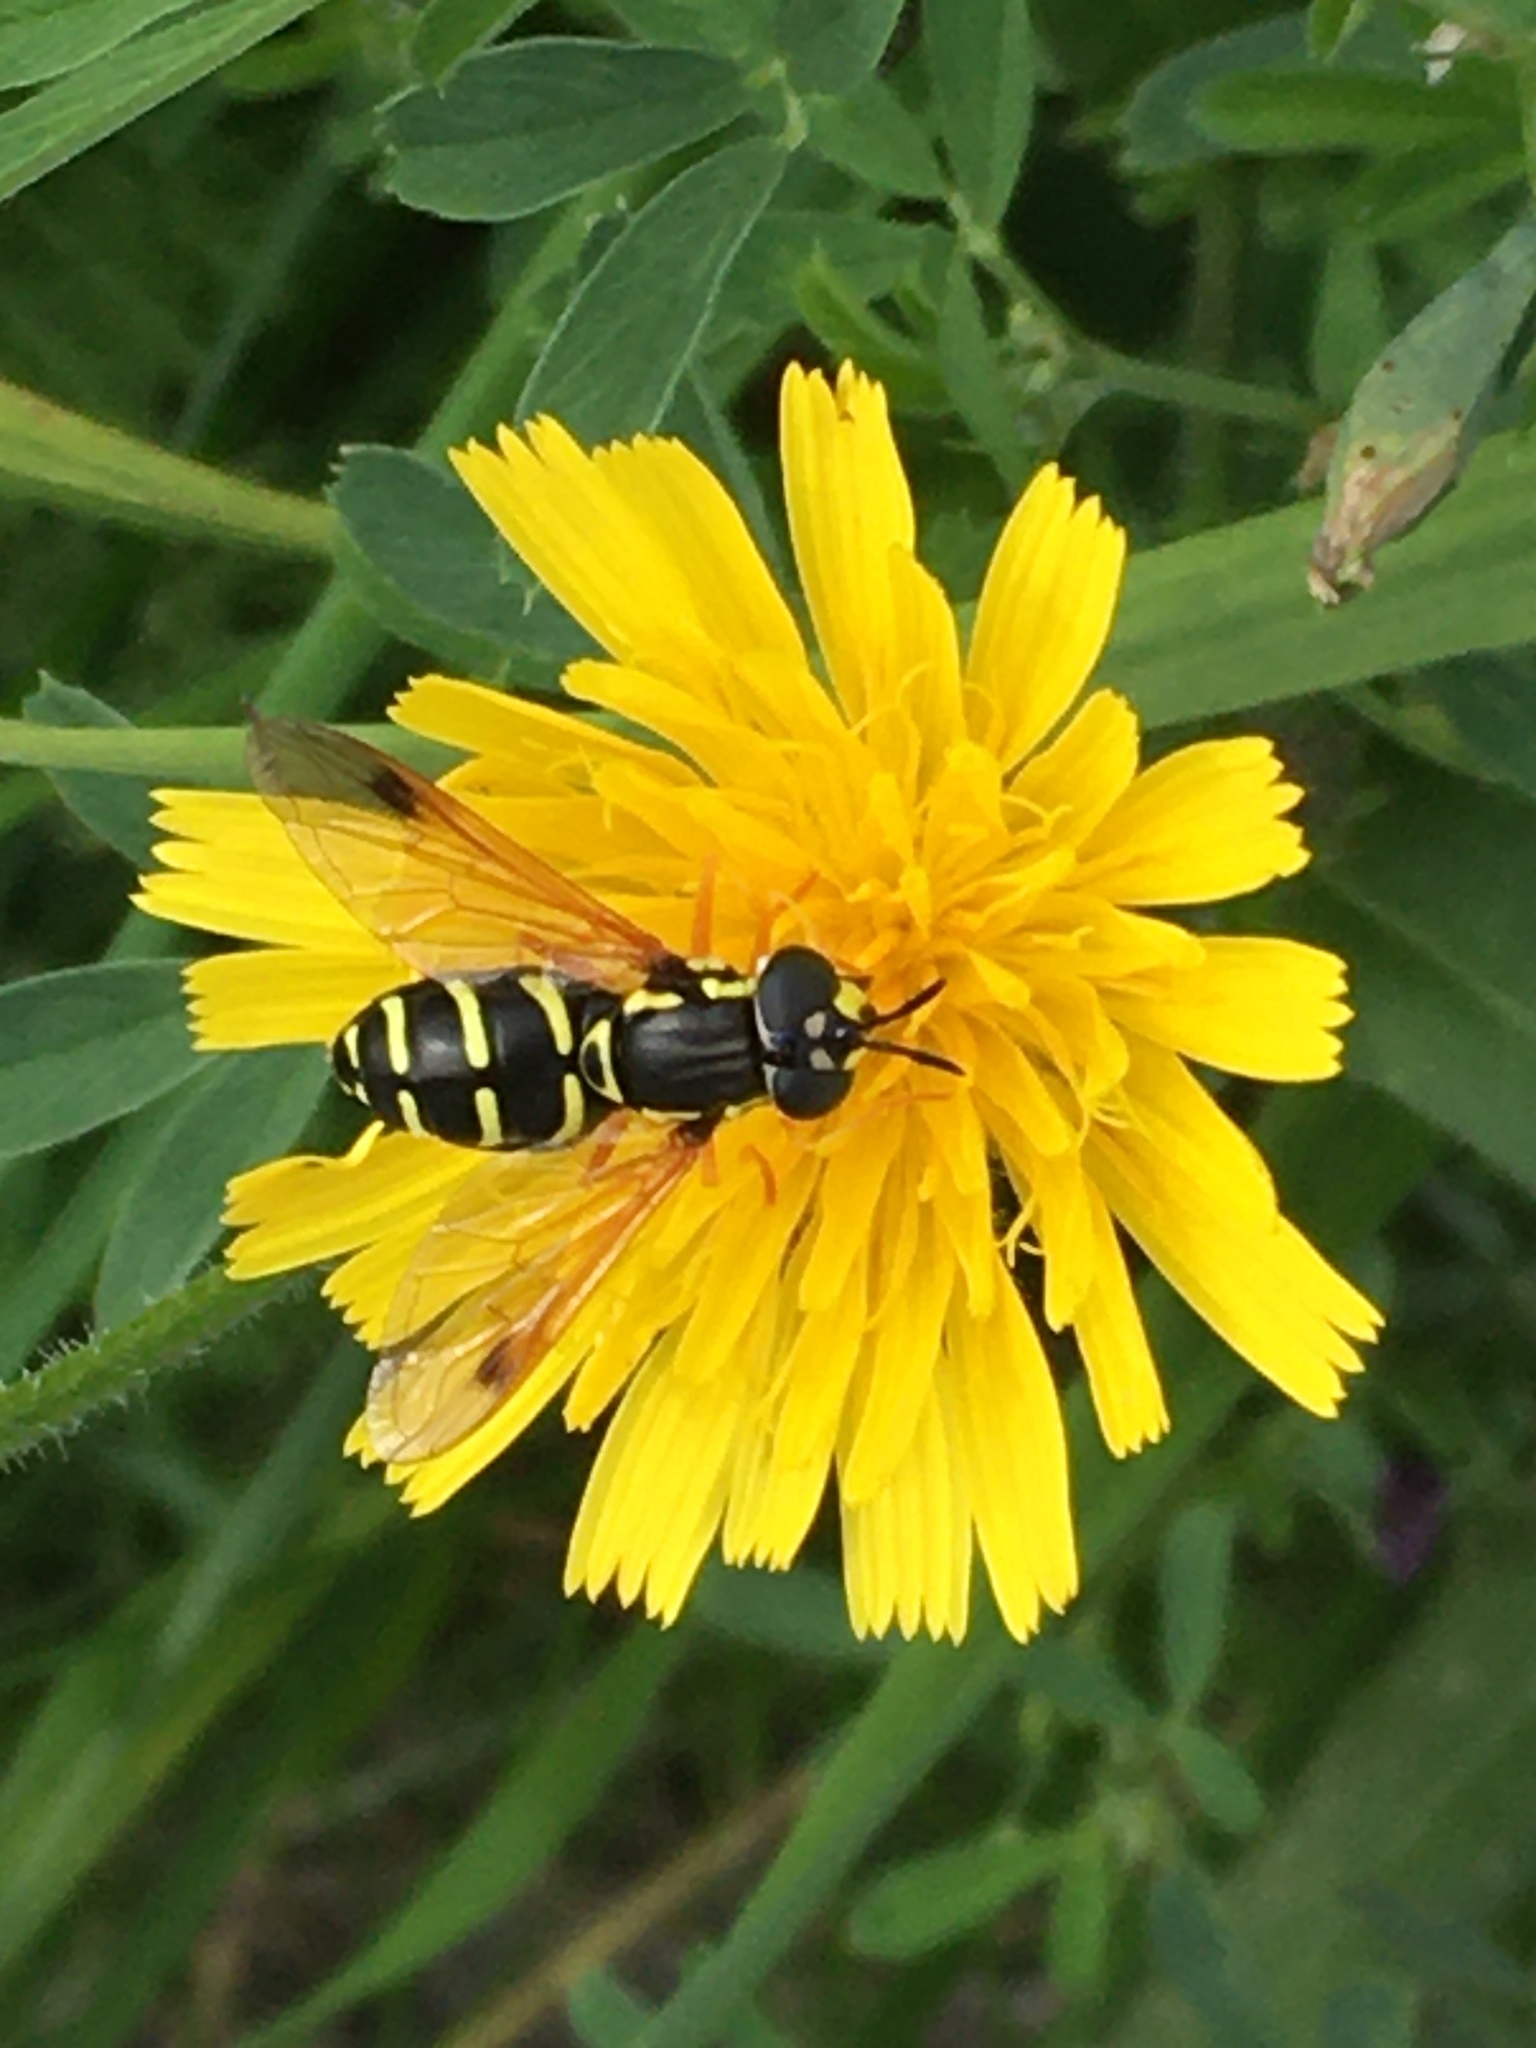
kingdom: Animalia
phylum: Arthropoda
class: Insecta
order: Diptera
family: Syrphidae
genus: Chrysotoxum
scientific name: Chrysotoxum festivum
